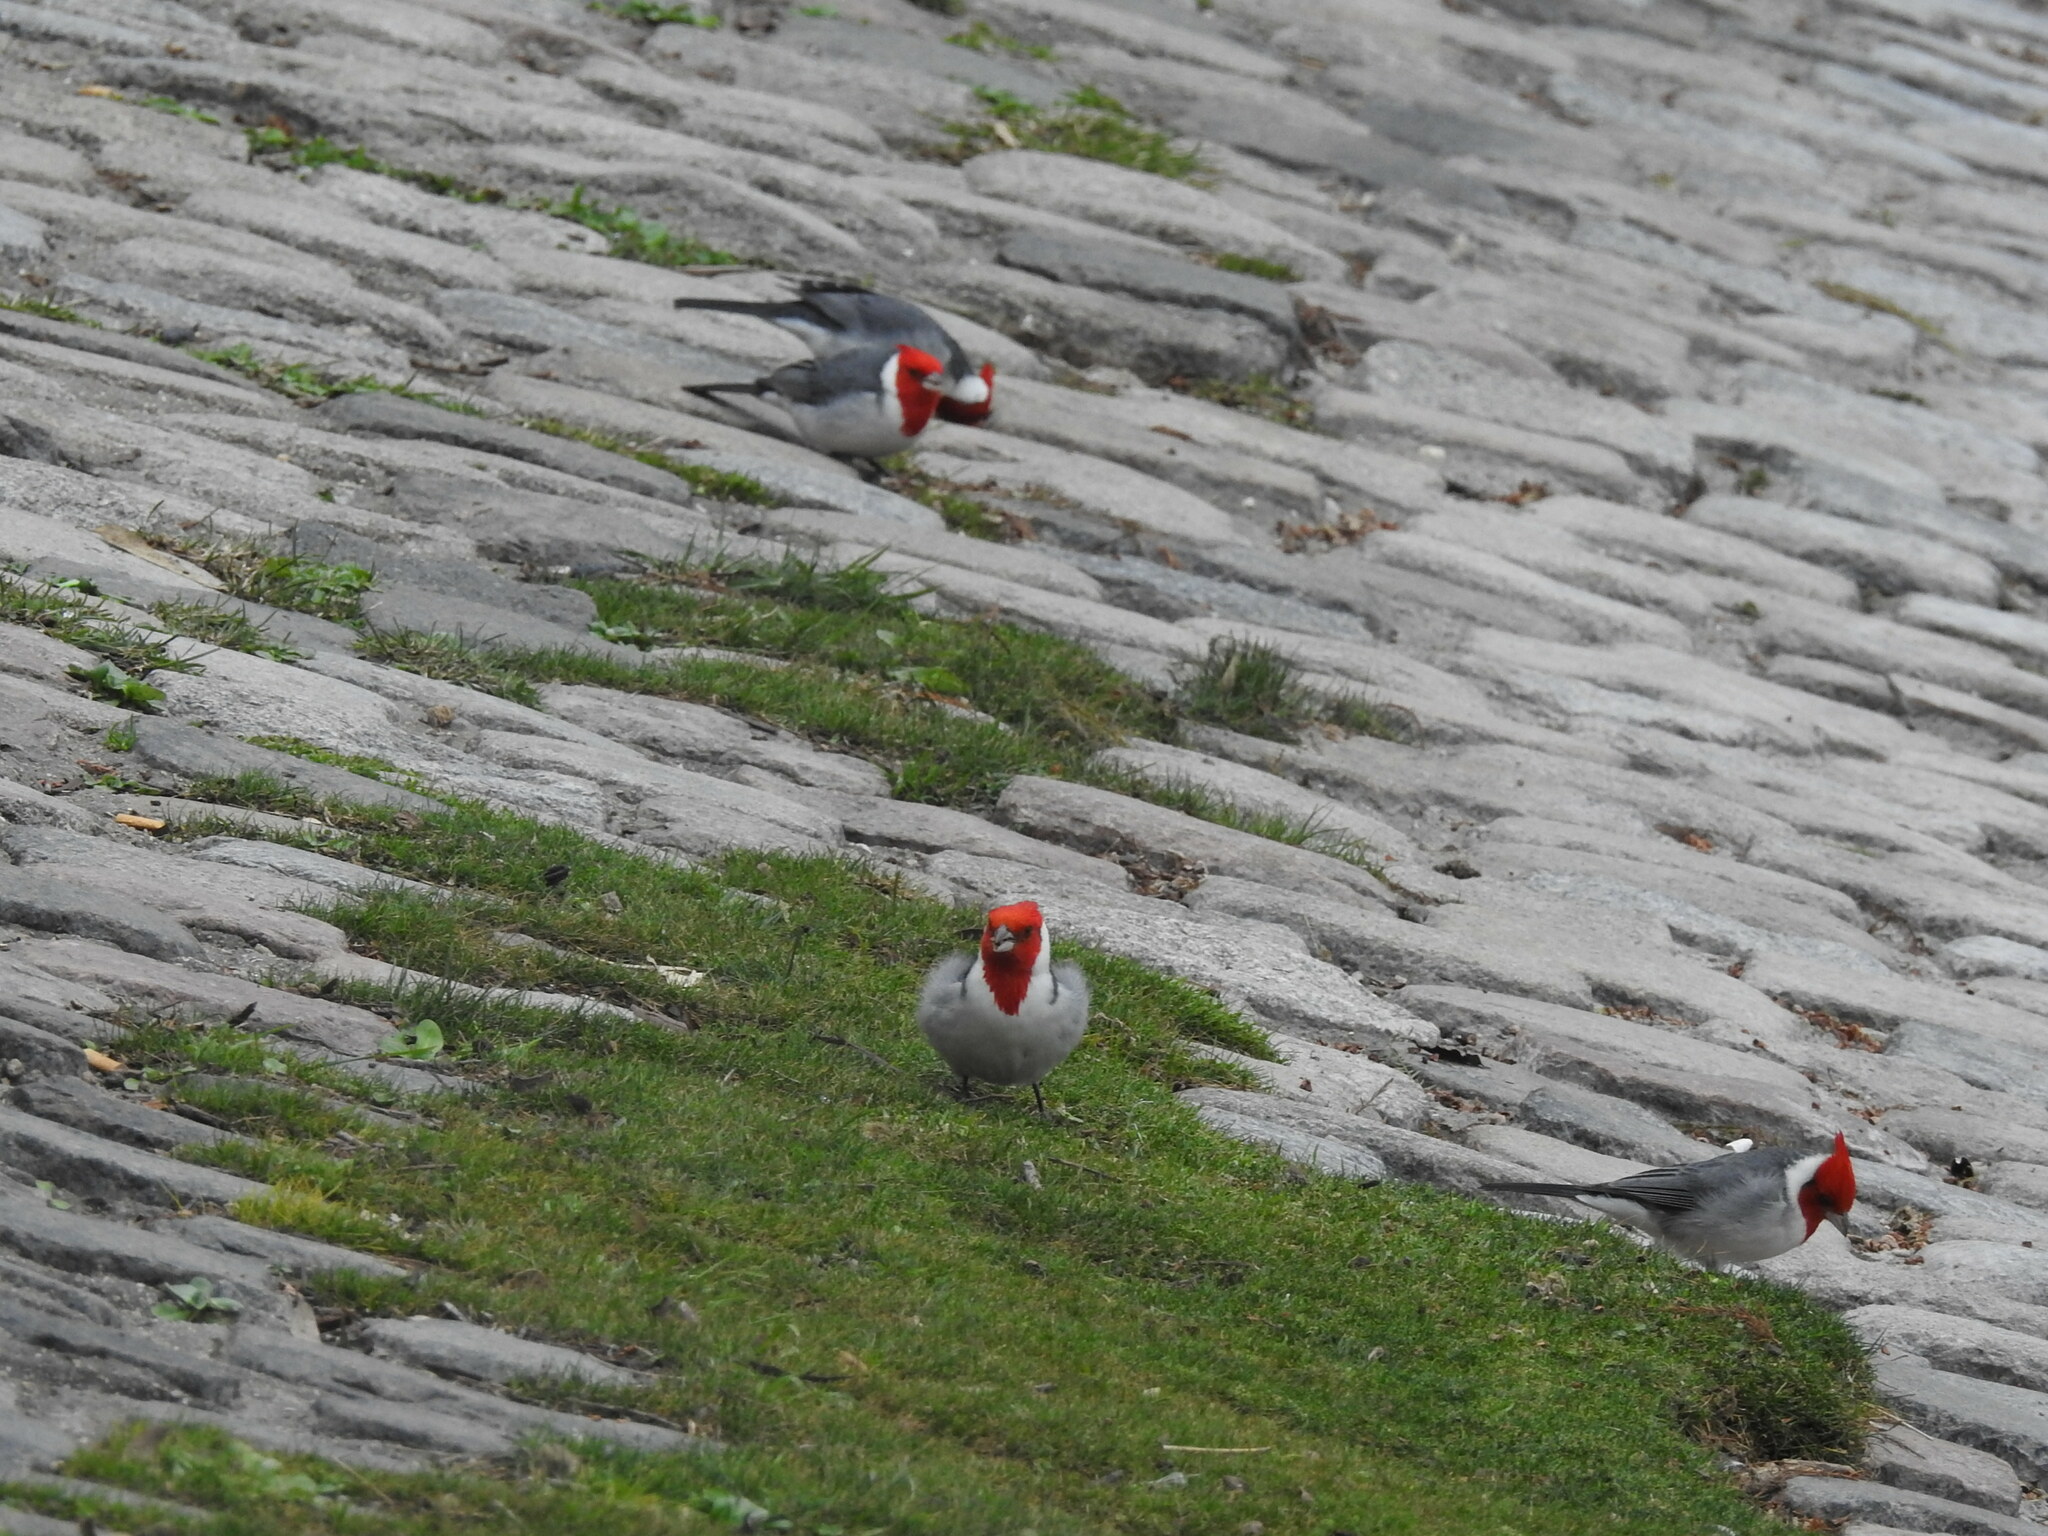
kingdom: Animalia
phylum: Chordata
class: Aves
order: Passeriformes
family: Thraupidae
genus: Paroaria
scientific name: Paroaria coronata
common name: Red-crested cardinal
